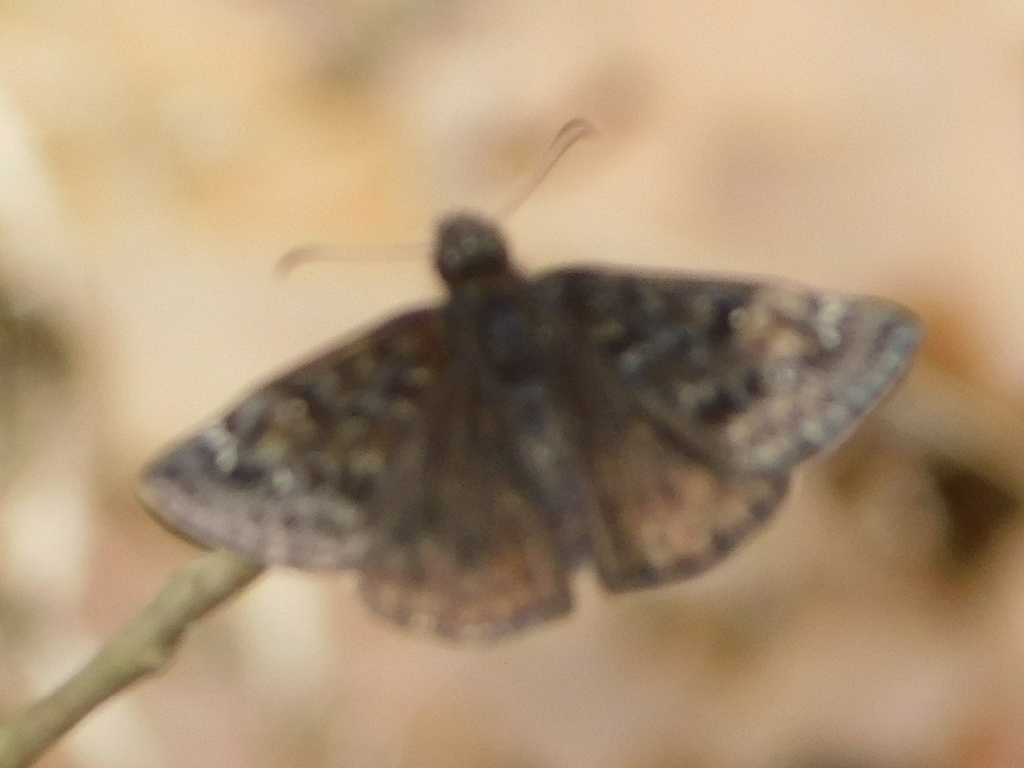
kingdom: Animalia
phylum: Arthropoda
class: Insecta
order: Lepidoptera
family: Hesperiidae
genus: Erynnis
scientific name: Erynnis juvenalis
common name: Juvenal's duskywing
